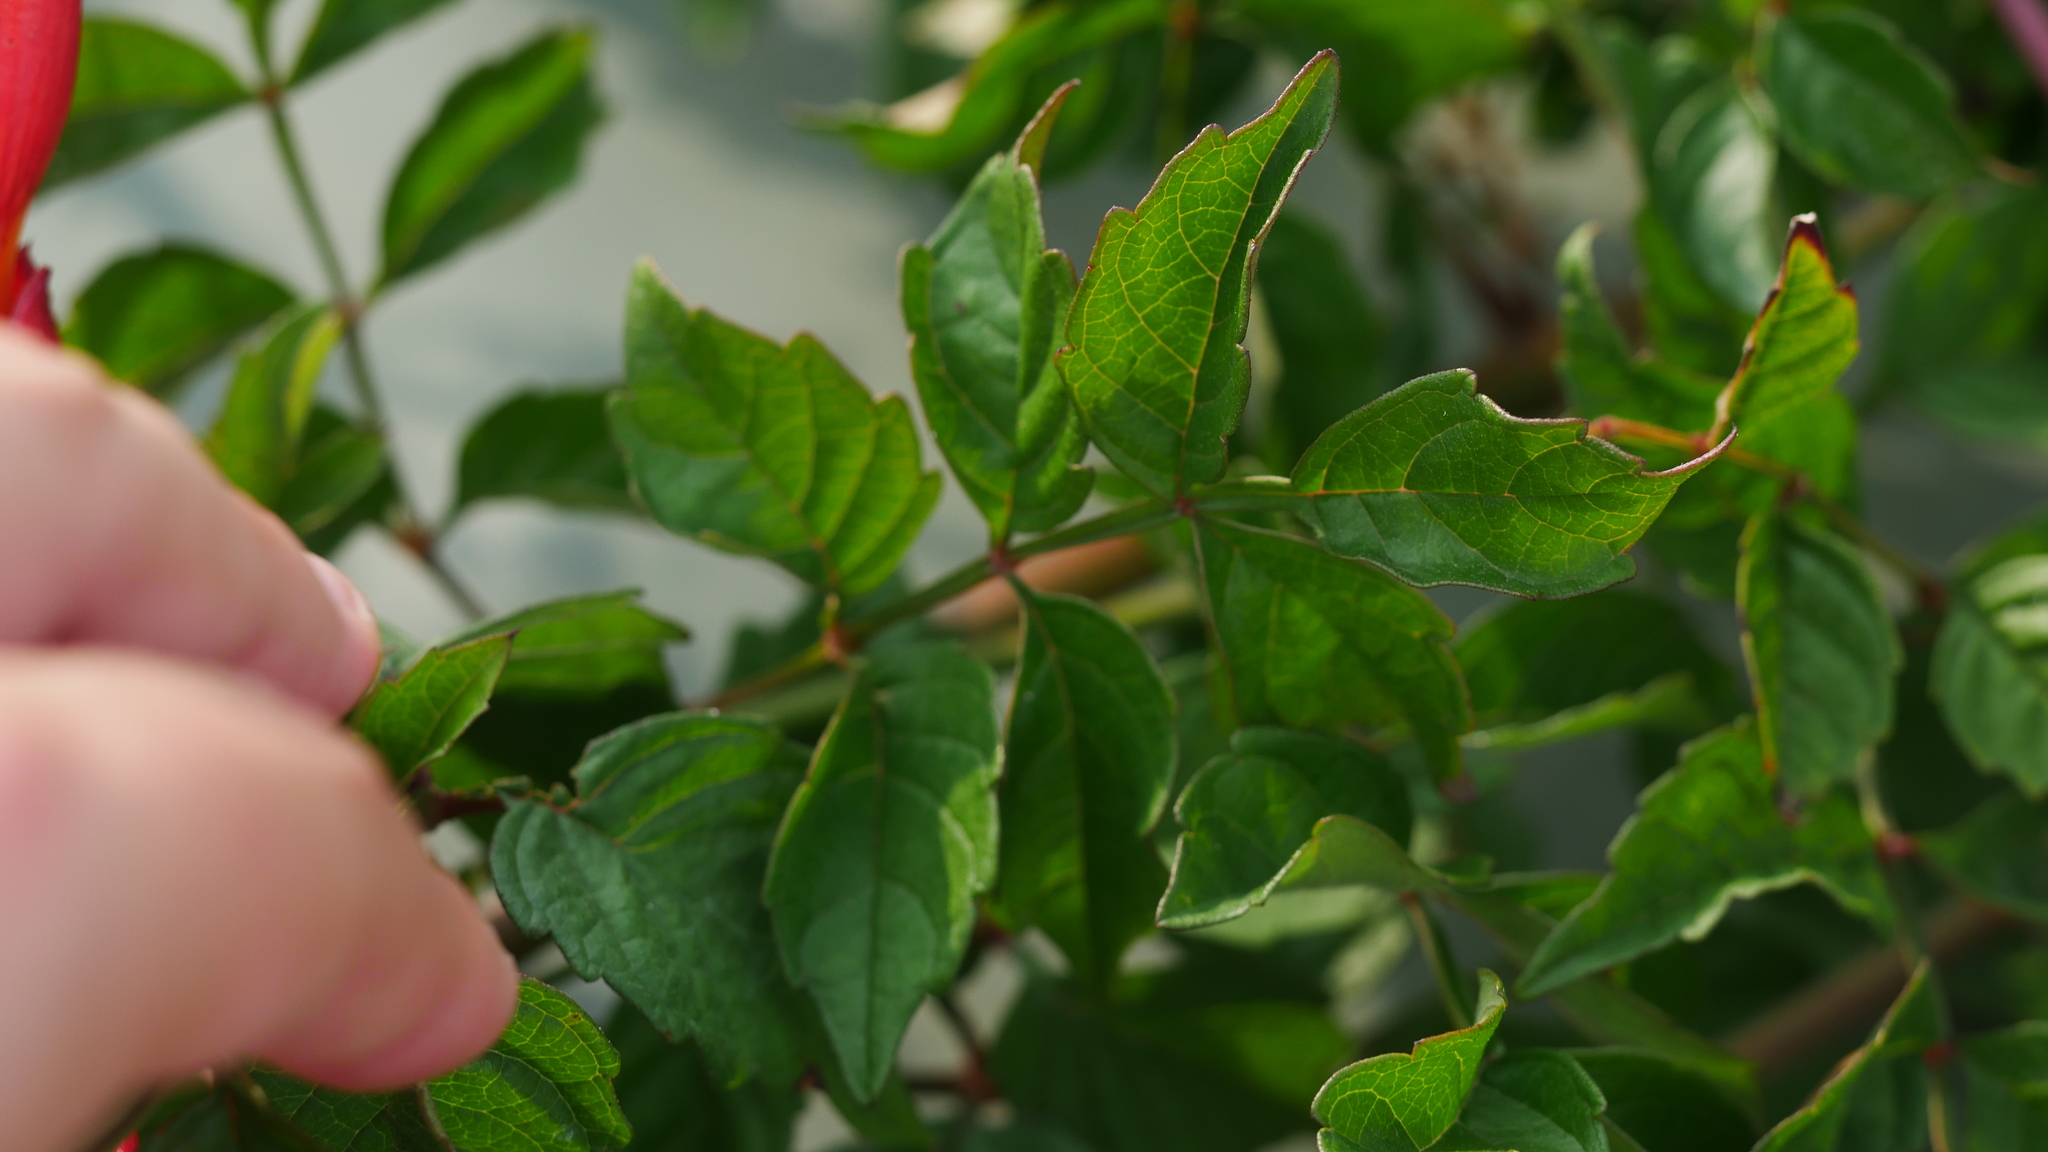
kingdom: Plantae
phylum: Tracheophyta
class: Magnoliopsida
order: Lamiales
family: Bignoniaceae
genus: Campsis
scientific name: Campsis radicans
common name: Trumpet-creeper
